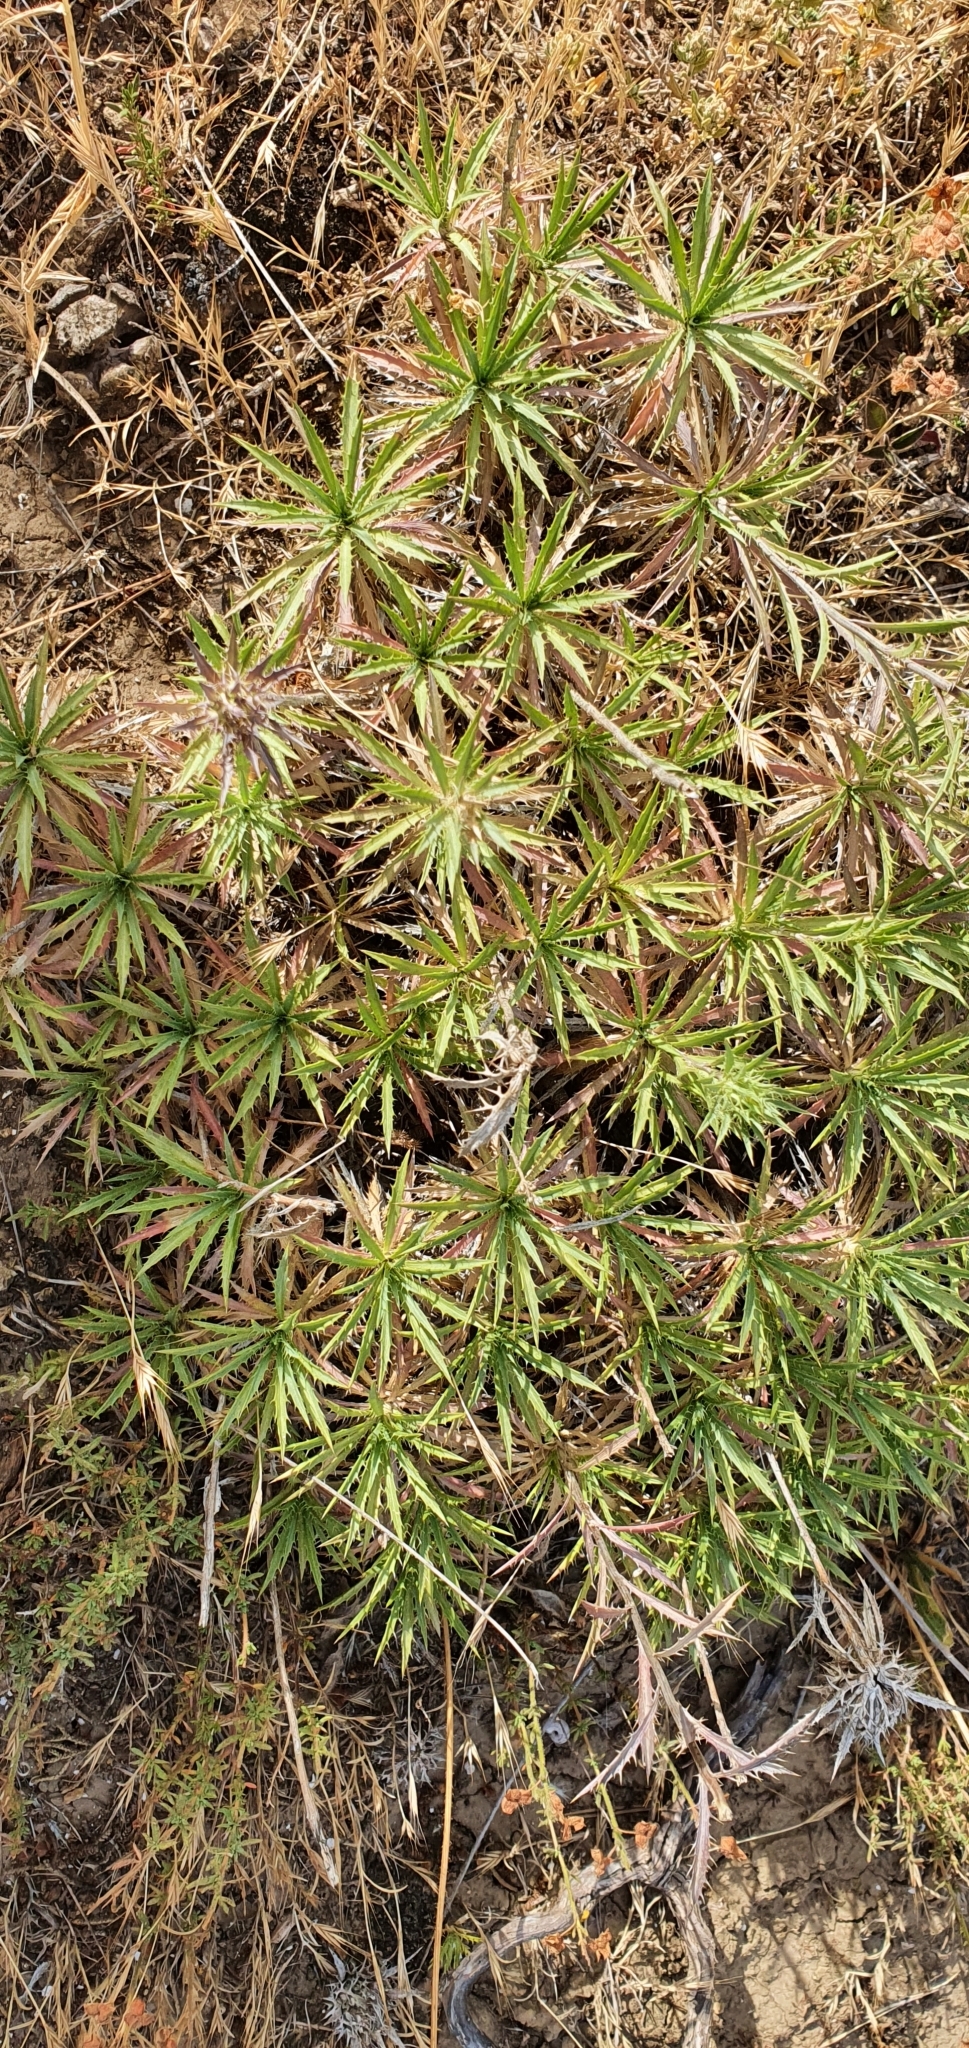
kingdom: Plantae
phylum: Tracheophyta
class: Magnoliopsida
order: Asterales
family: Asteraceae
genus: Atractylis
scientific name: Atractylis caespitosa
